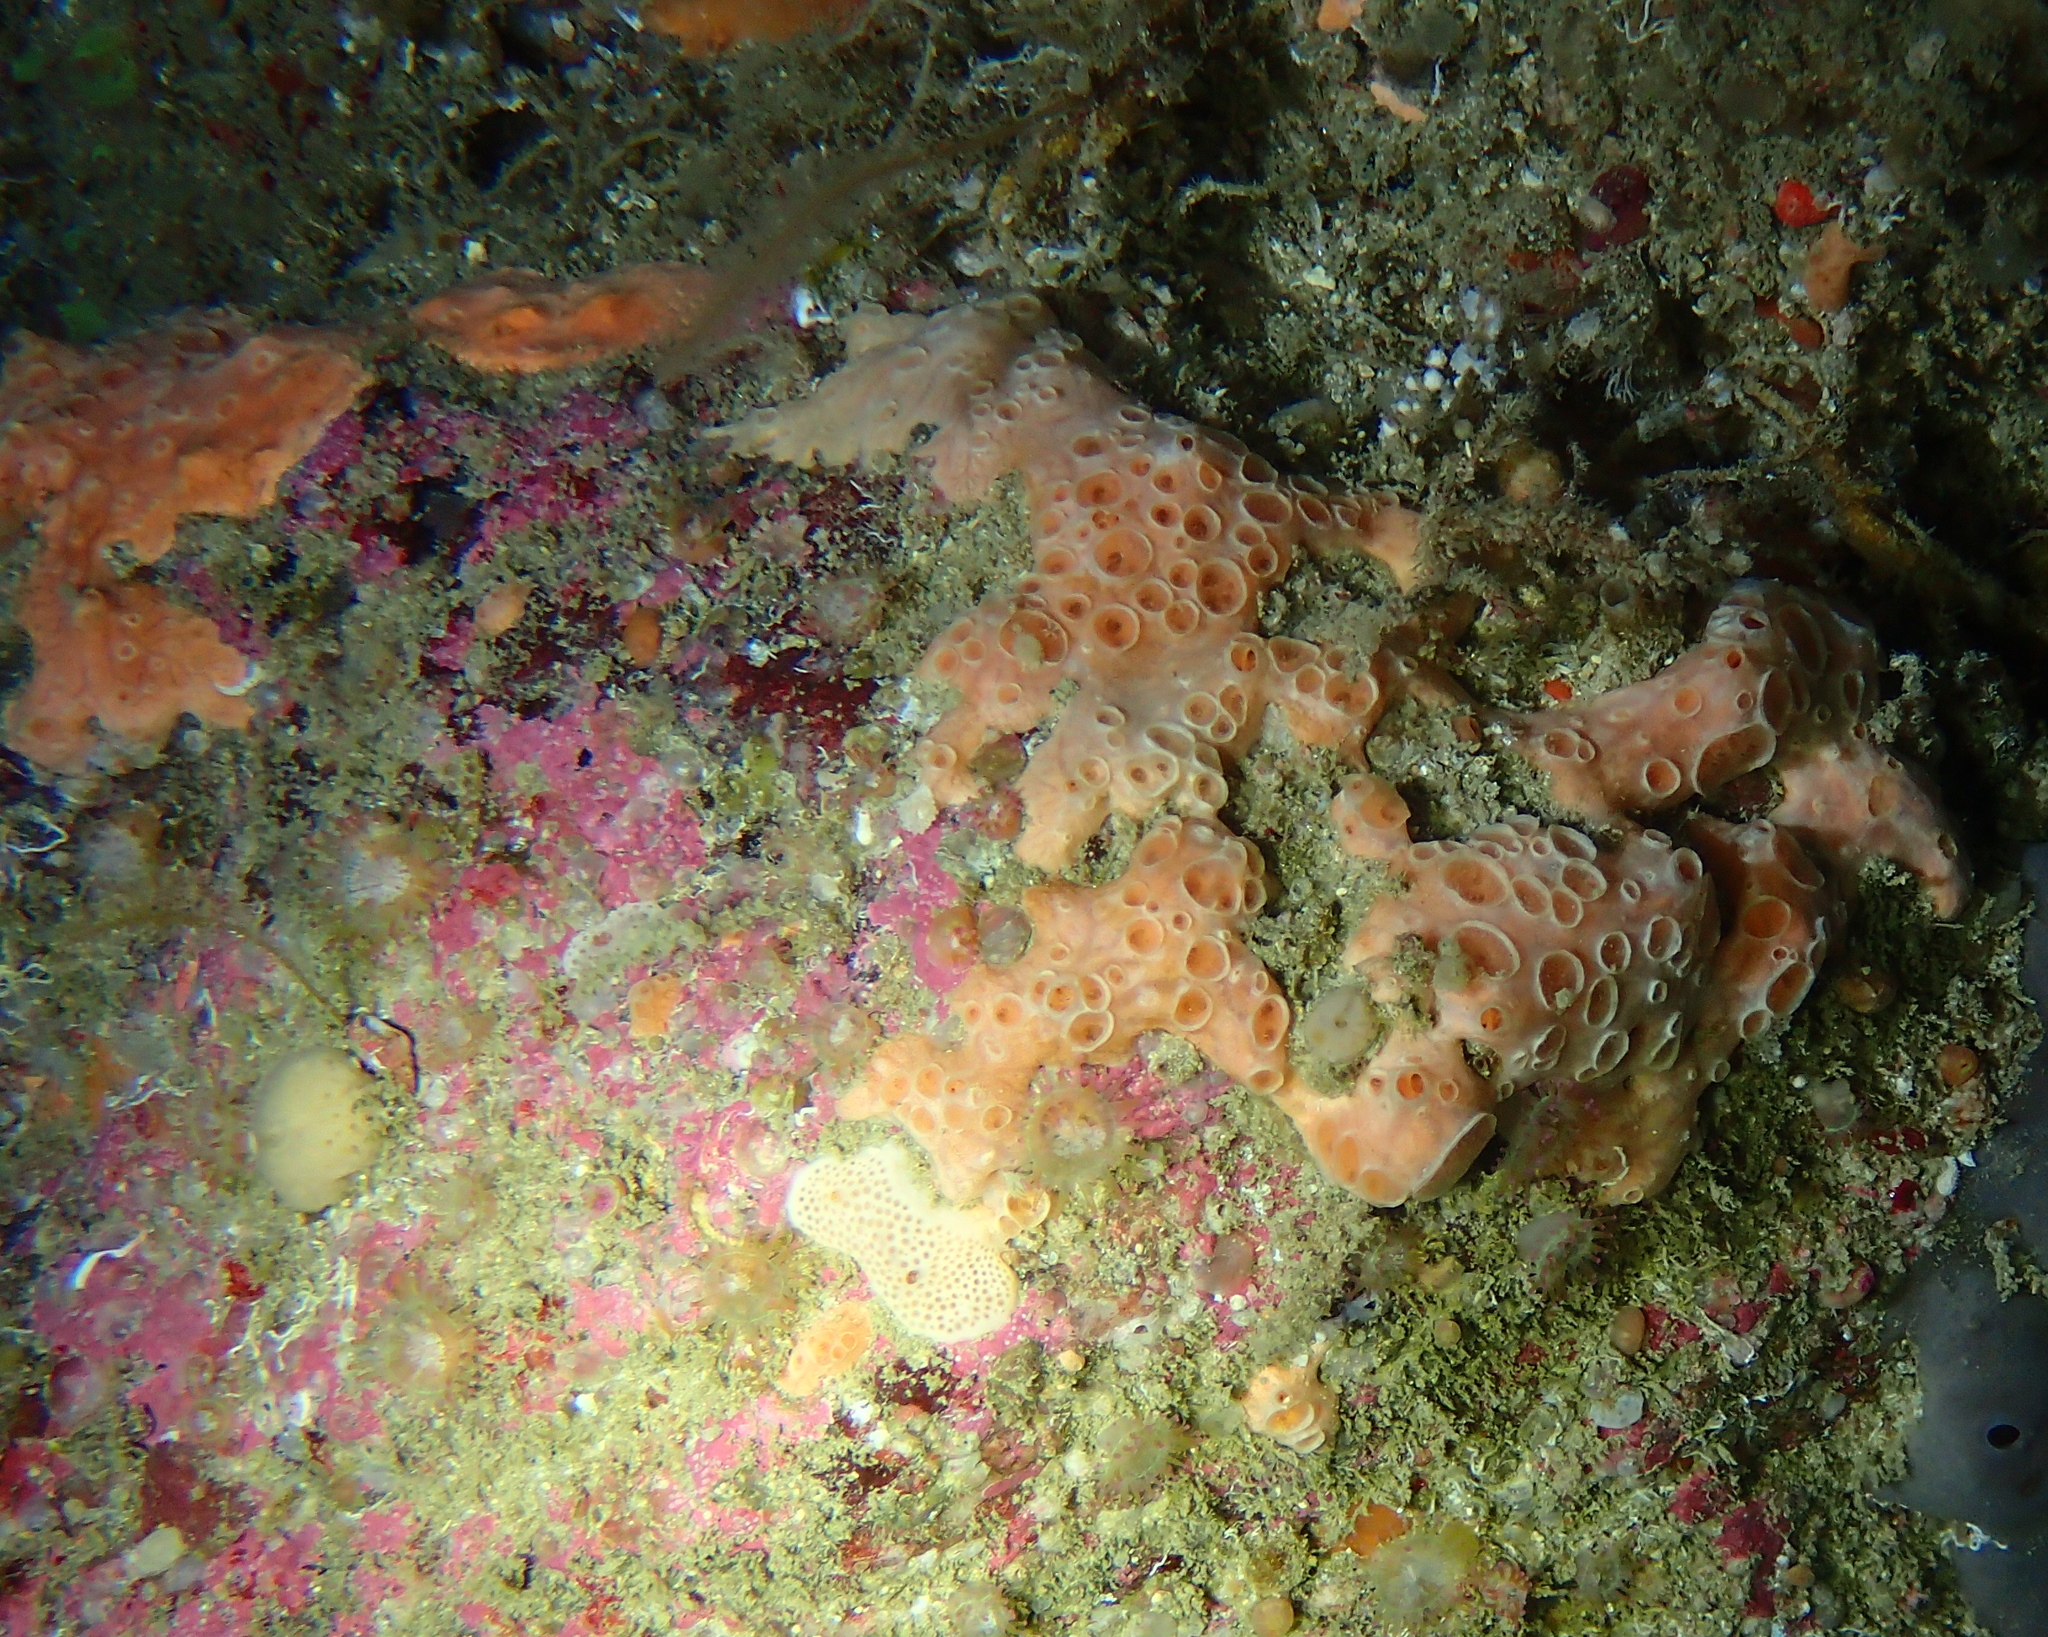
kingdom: Animalia
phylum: Porifera
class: Demospongiae
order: Poecilosclerida
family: Hymedesmiidae
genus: Hemimycale
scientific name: Hemimycale columella
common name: Crater sponge
